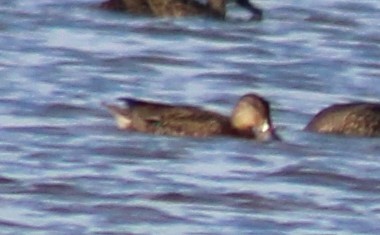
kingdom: Animalia
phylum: Chordata
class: Aves
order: Anseriformes
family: Anatidae
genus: Anas
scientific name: Anas crecca
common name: Eurasian teal
